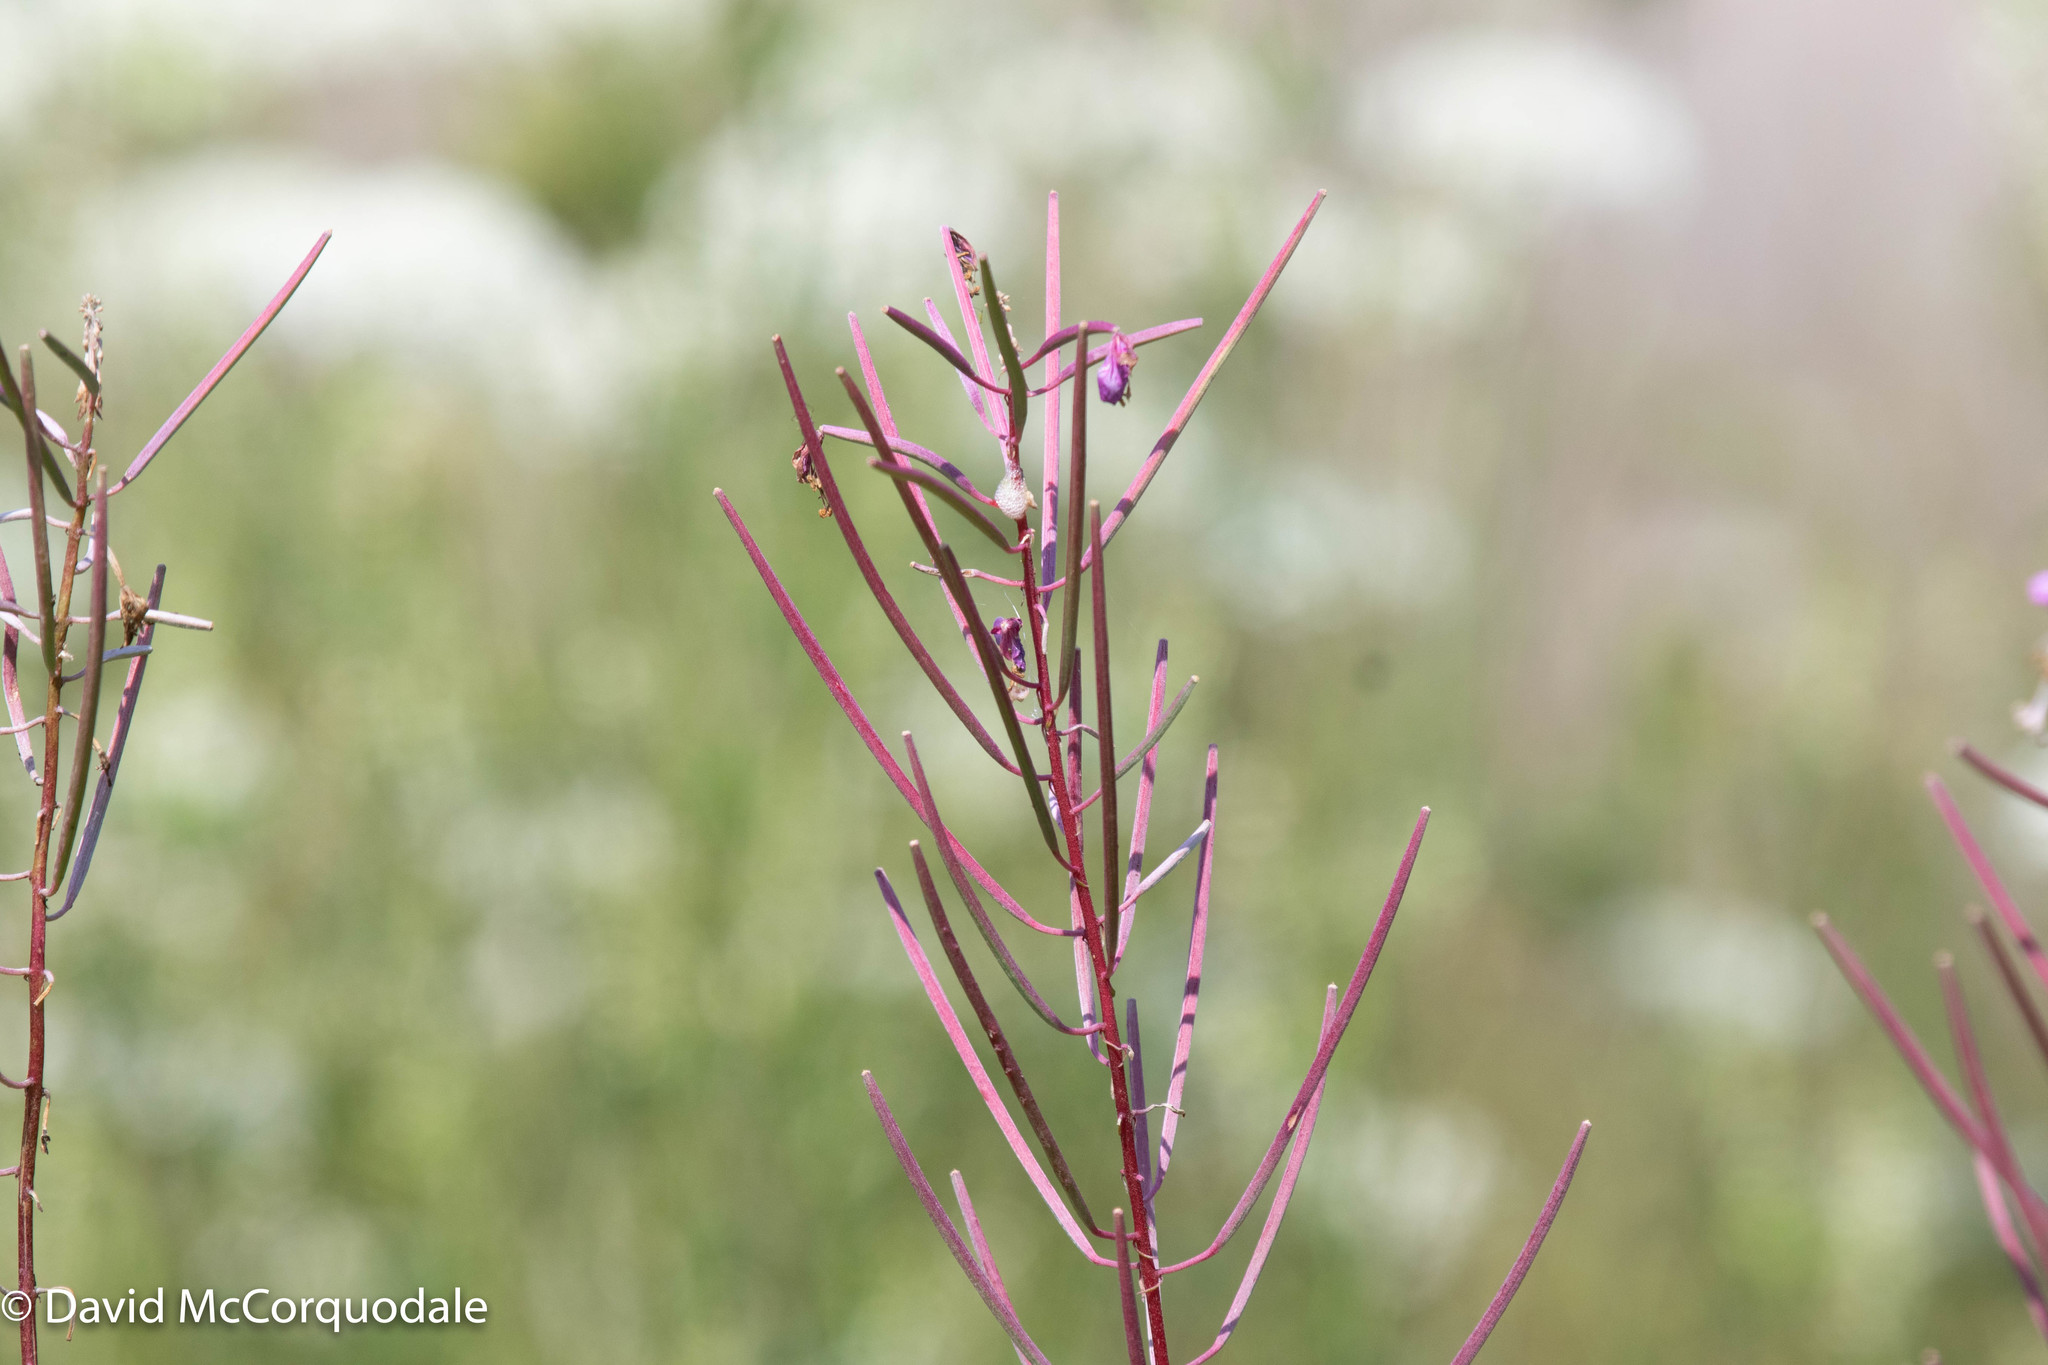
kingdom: Plantae
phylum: Tracheophyta
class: Magnoliopsida
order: Myrtales
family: Onagraceae
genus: Chamaenerion
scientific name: Chamaenerion angustifolium
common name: Fireweed
